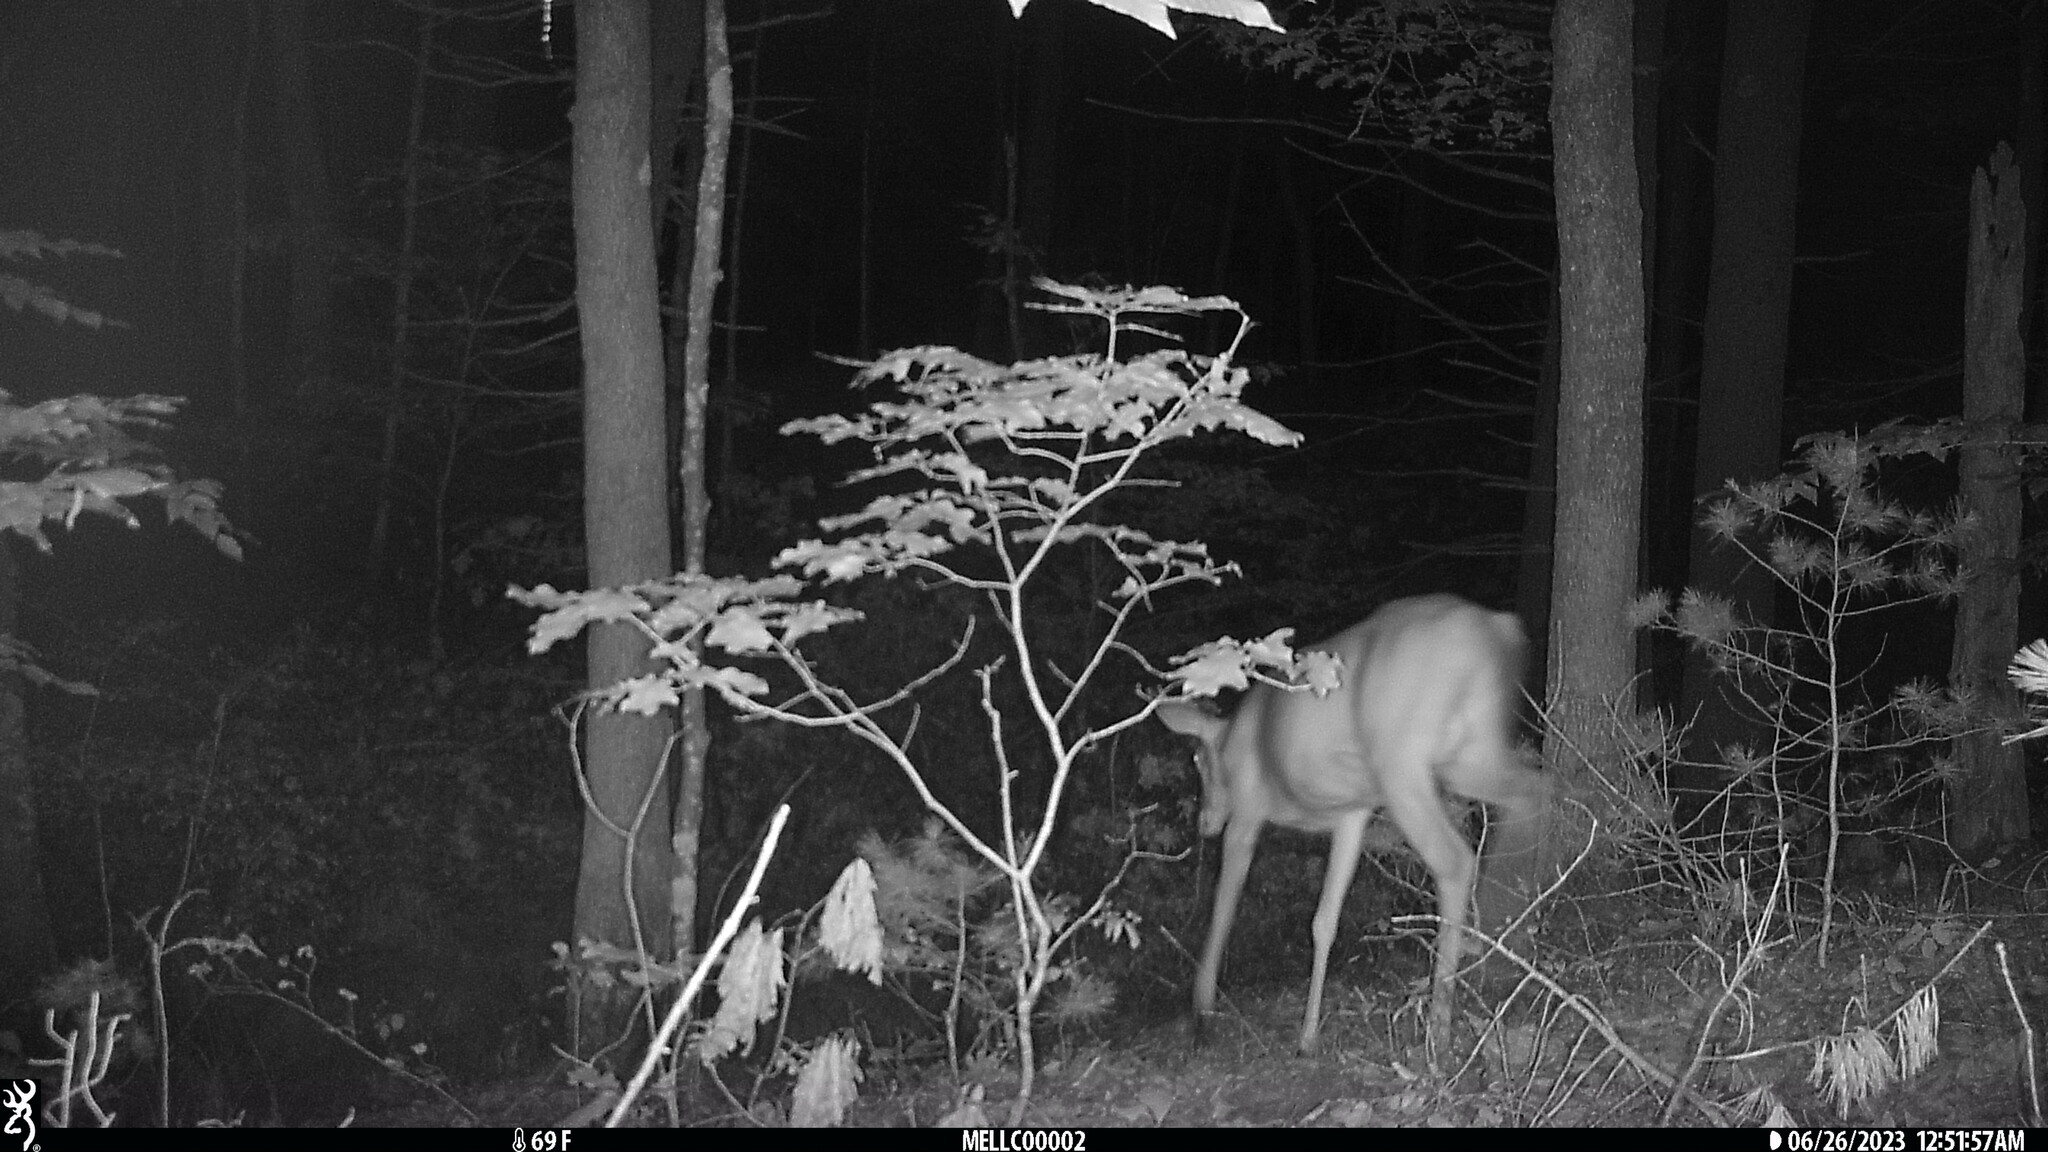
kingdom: Animalia
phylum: Chordata
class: Mammalia
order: Artiodactyla
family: Cervidae
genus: Odocoileus
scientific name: Odocoileus virginianus
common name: White-tailed deer
